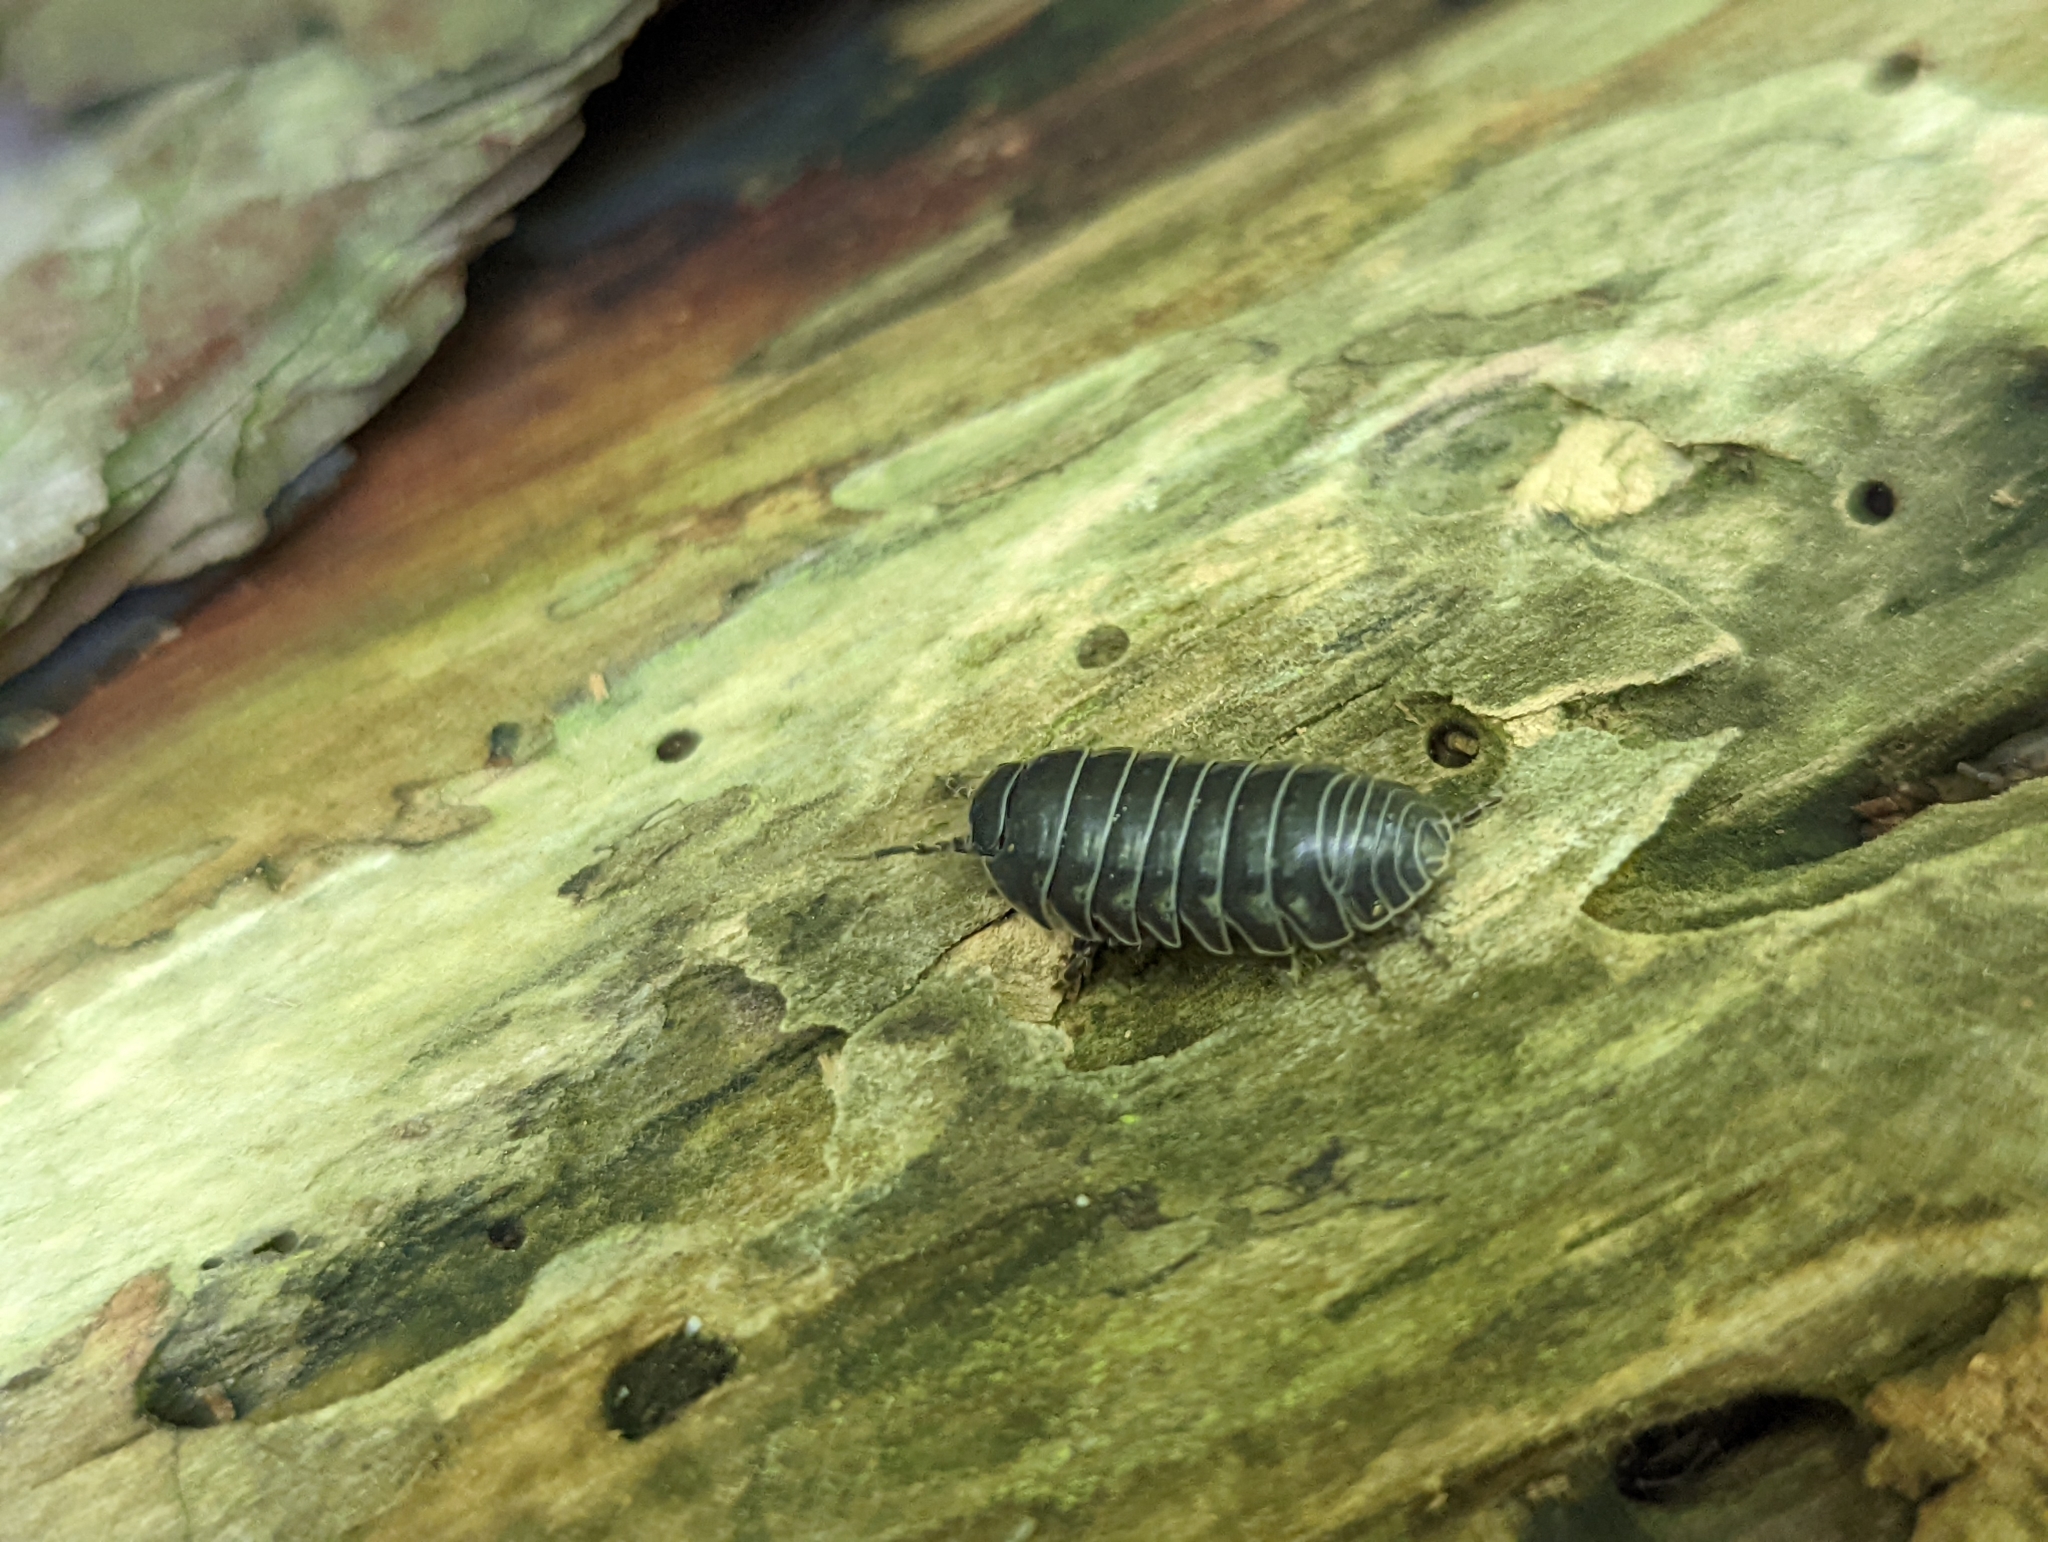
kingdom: Animalia
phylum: Arthropoda
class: Malacostraca
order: Isopoda
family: Armadillidiidae
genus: Armadillidium
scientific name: Armadillidium vulgare
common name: Common pill woodlouse
